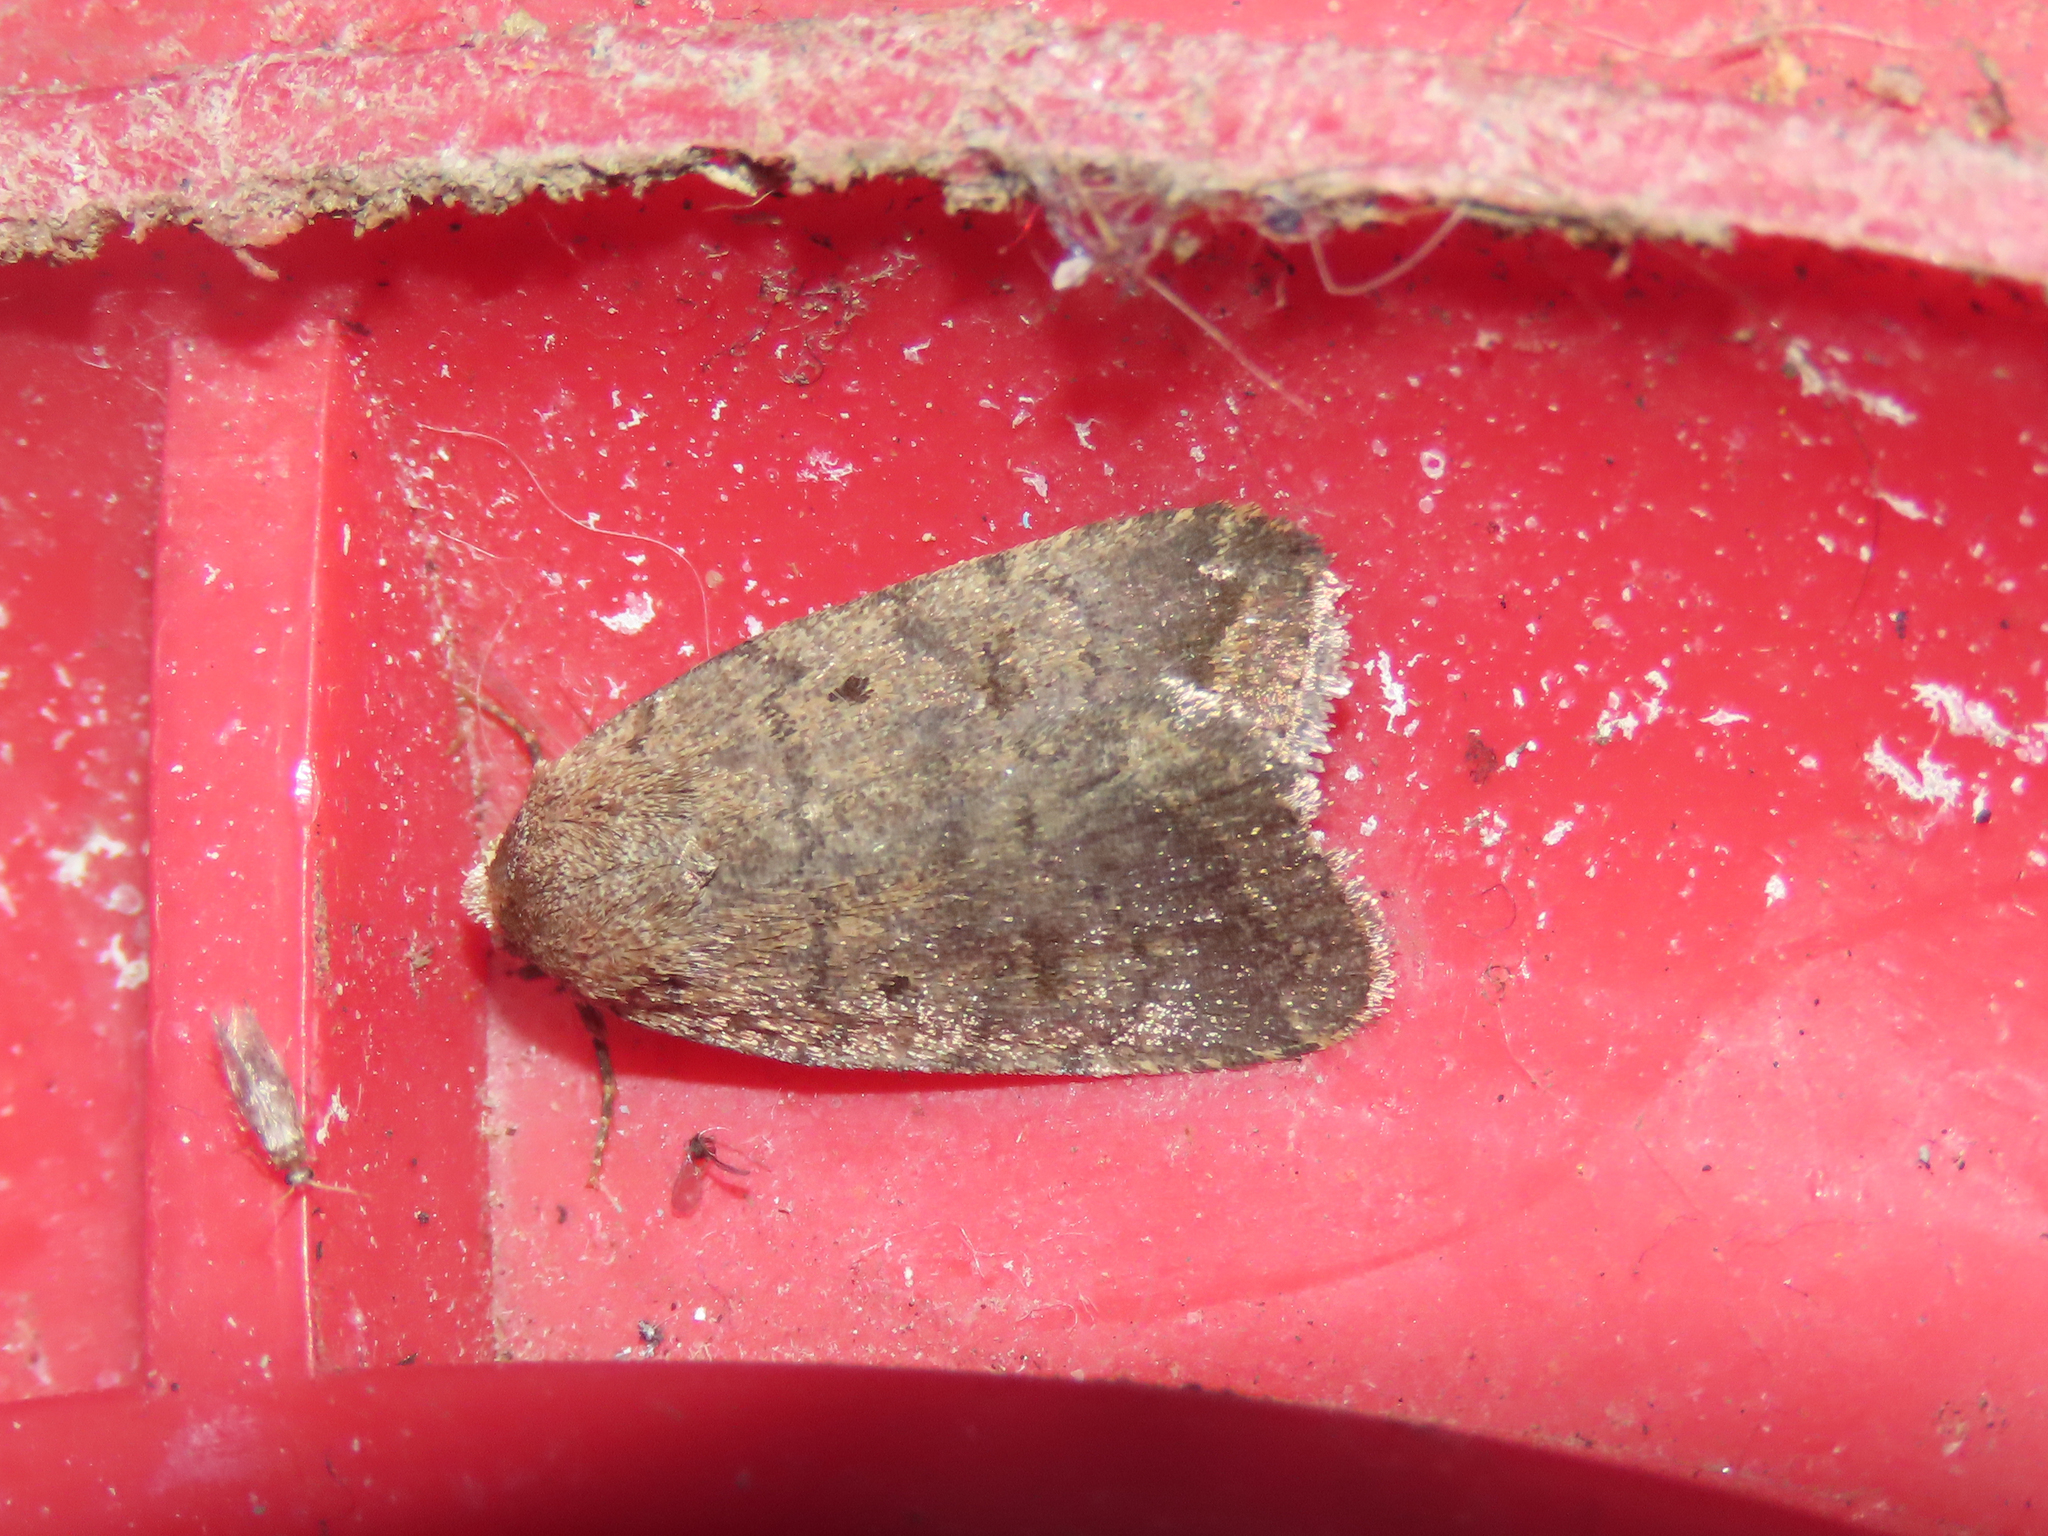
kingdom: Animalia
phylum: Arthropoda
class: Insecta
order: Lepidoptera
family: Noctuidae
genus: Athetis
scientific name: Athetis tarda
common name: Slowpoke moth
